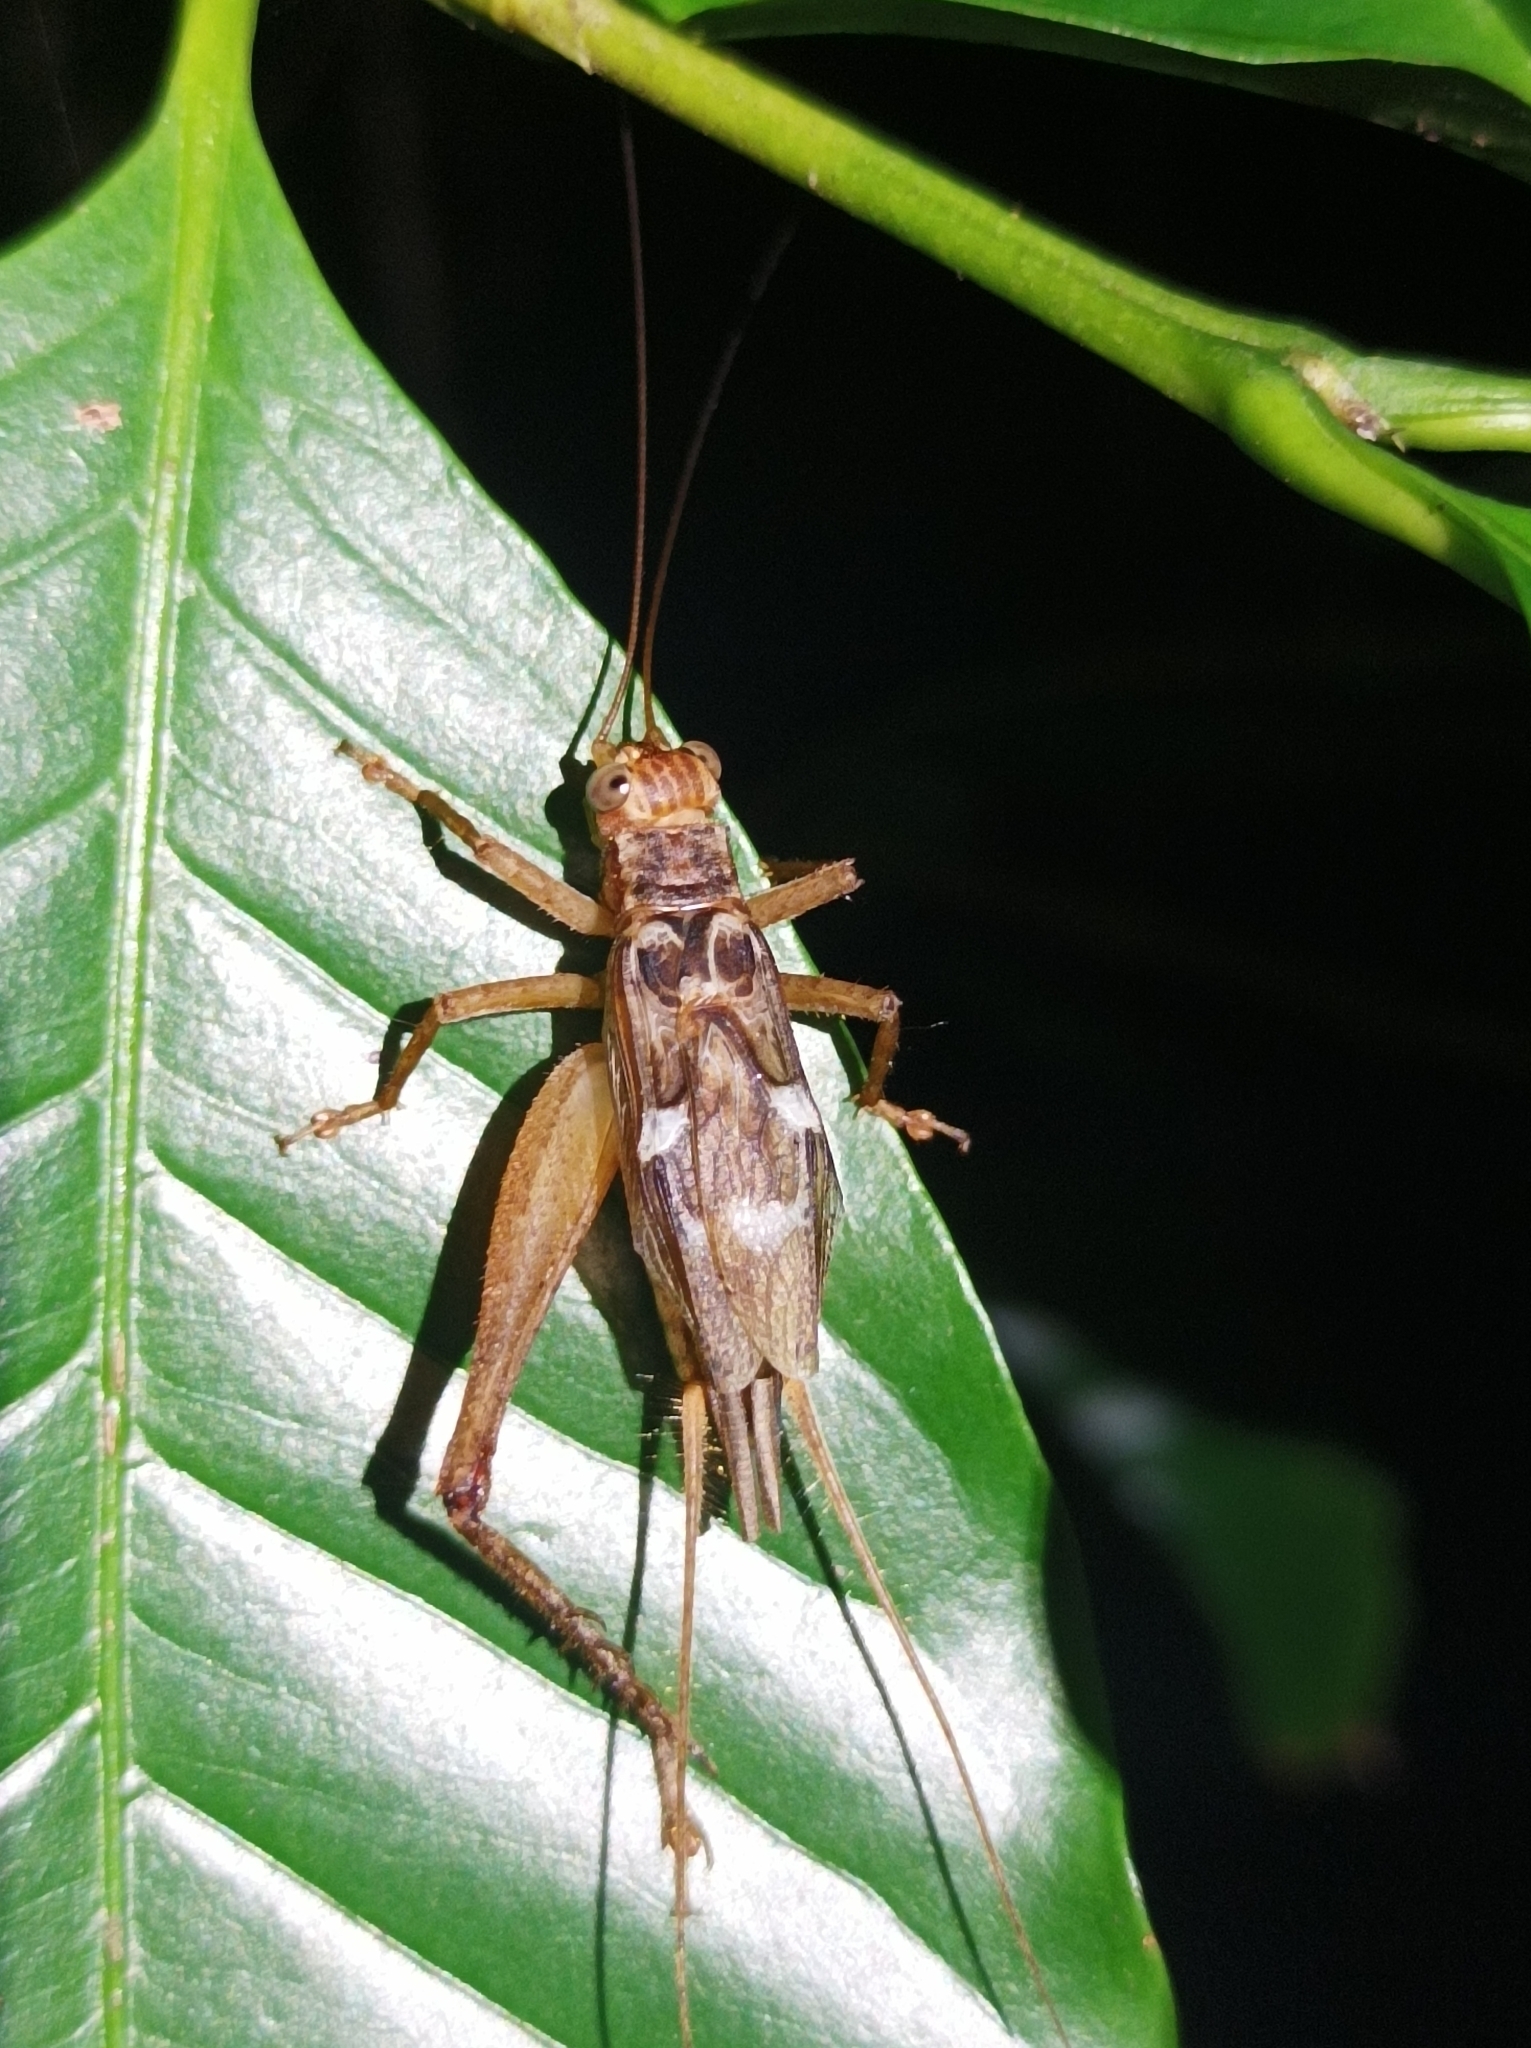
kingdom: Animalia
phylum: Arthropoda
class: Insecta
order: Orthoptera
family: Gryllidae
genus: Cardiodactylus
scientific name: Cardiodactylus novaeguineae
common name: Sad cricket
